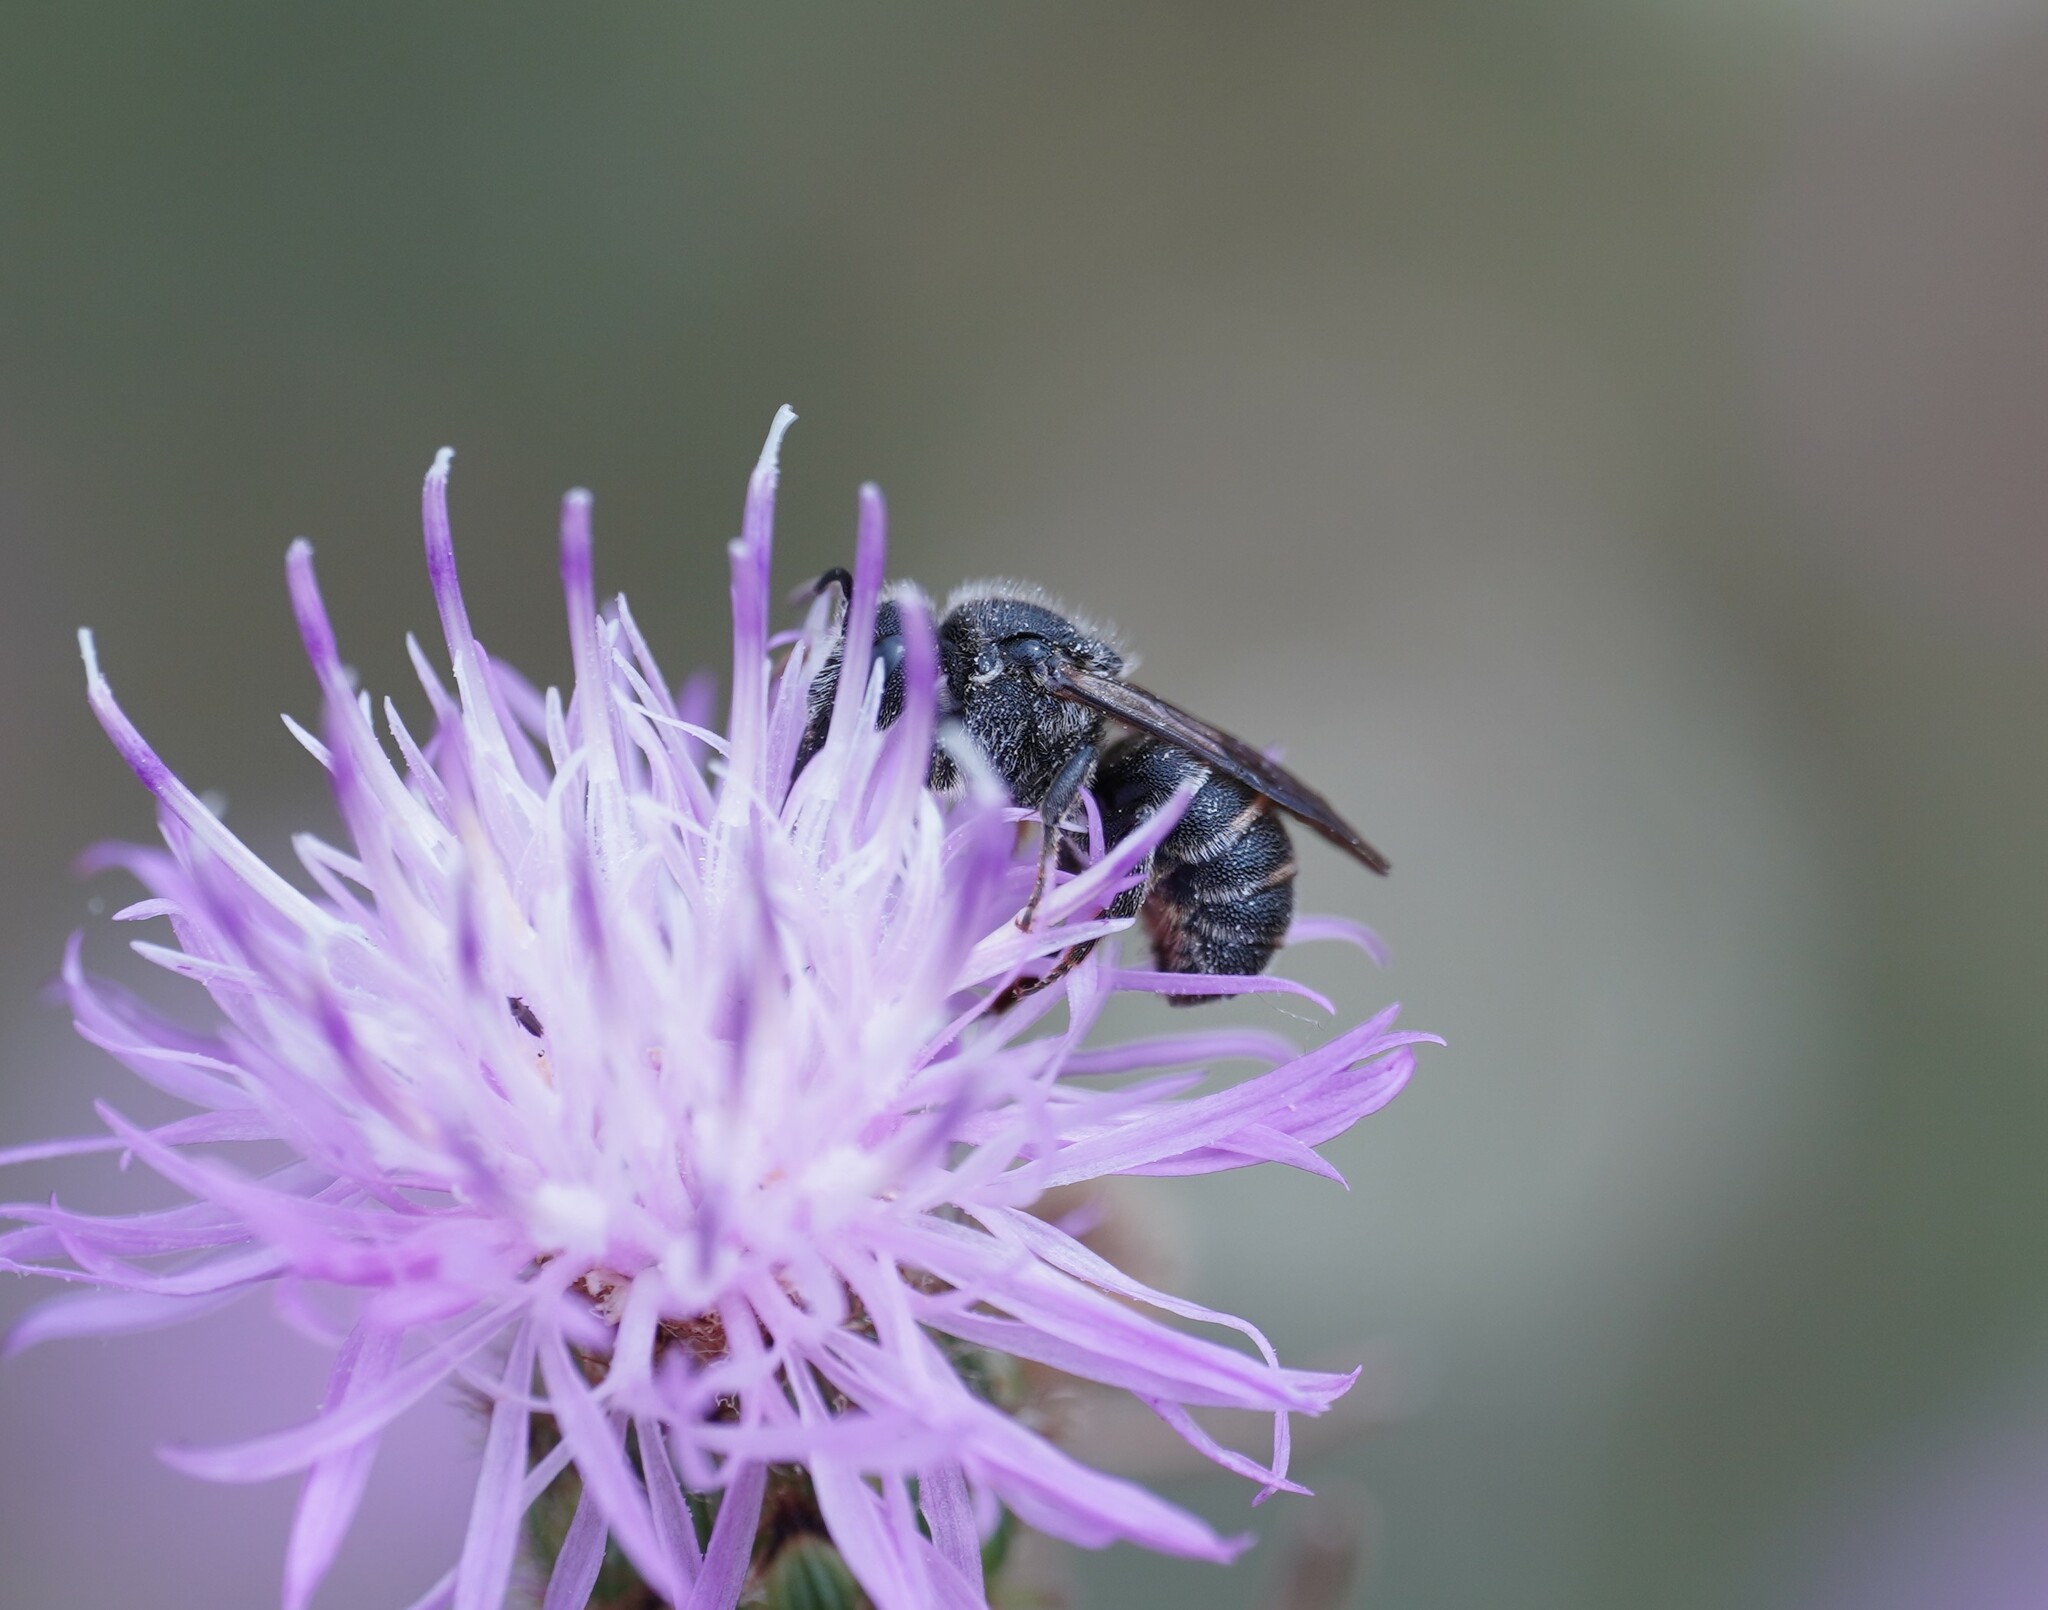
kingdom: Animalia
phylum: Arthropoda
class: Insecta
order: Hymenoptera
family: Megachilidae
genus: Stelis
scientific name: Stelis punctulatissima
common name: Banded dark bee
